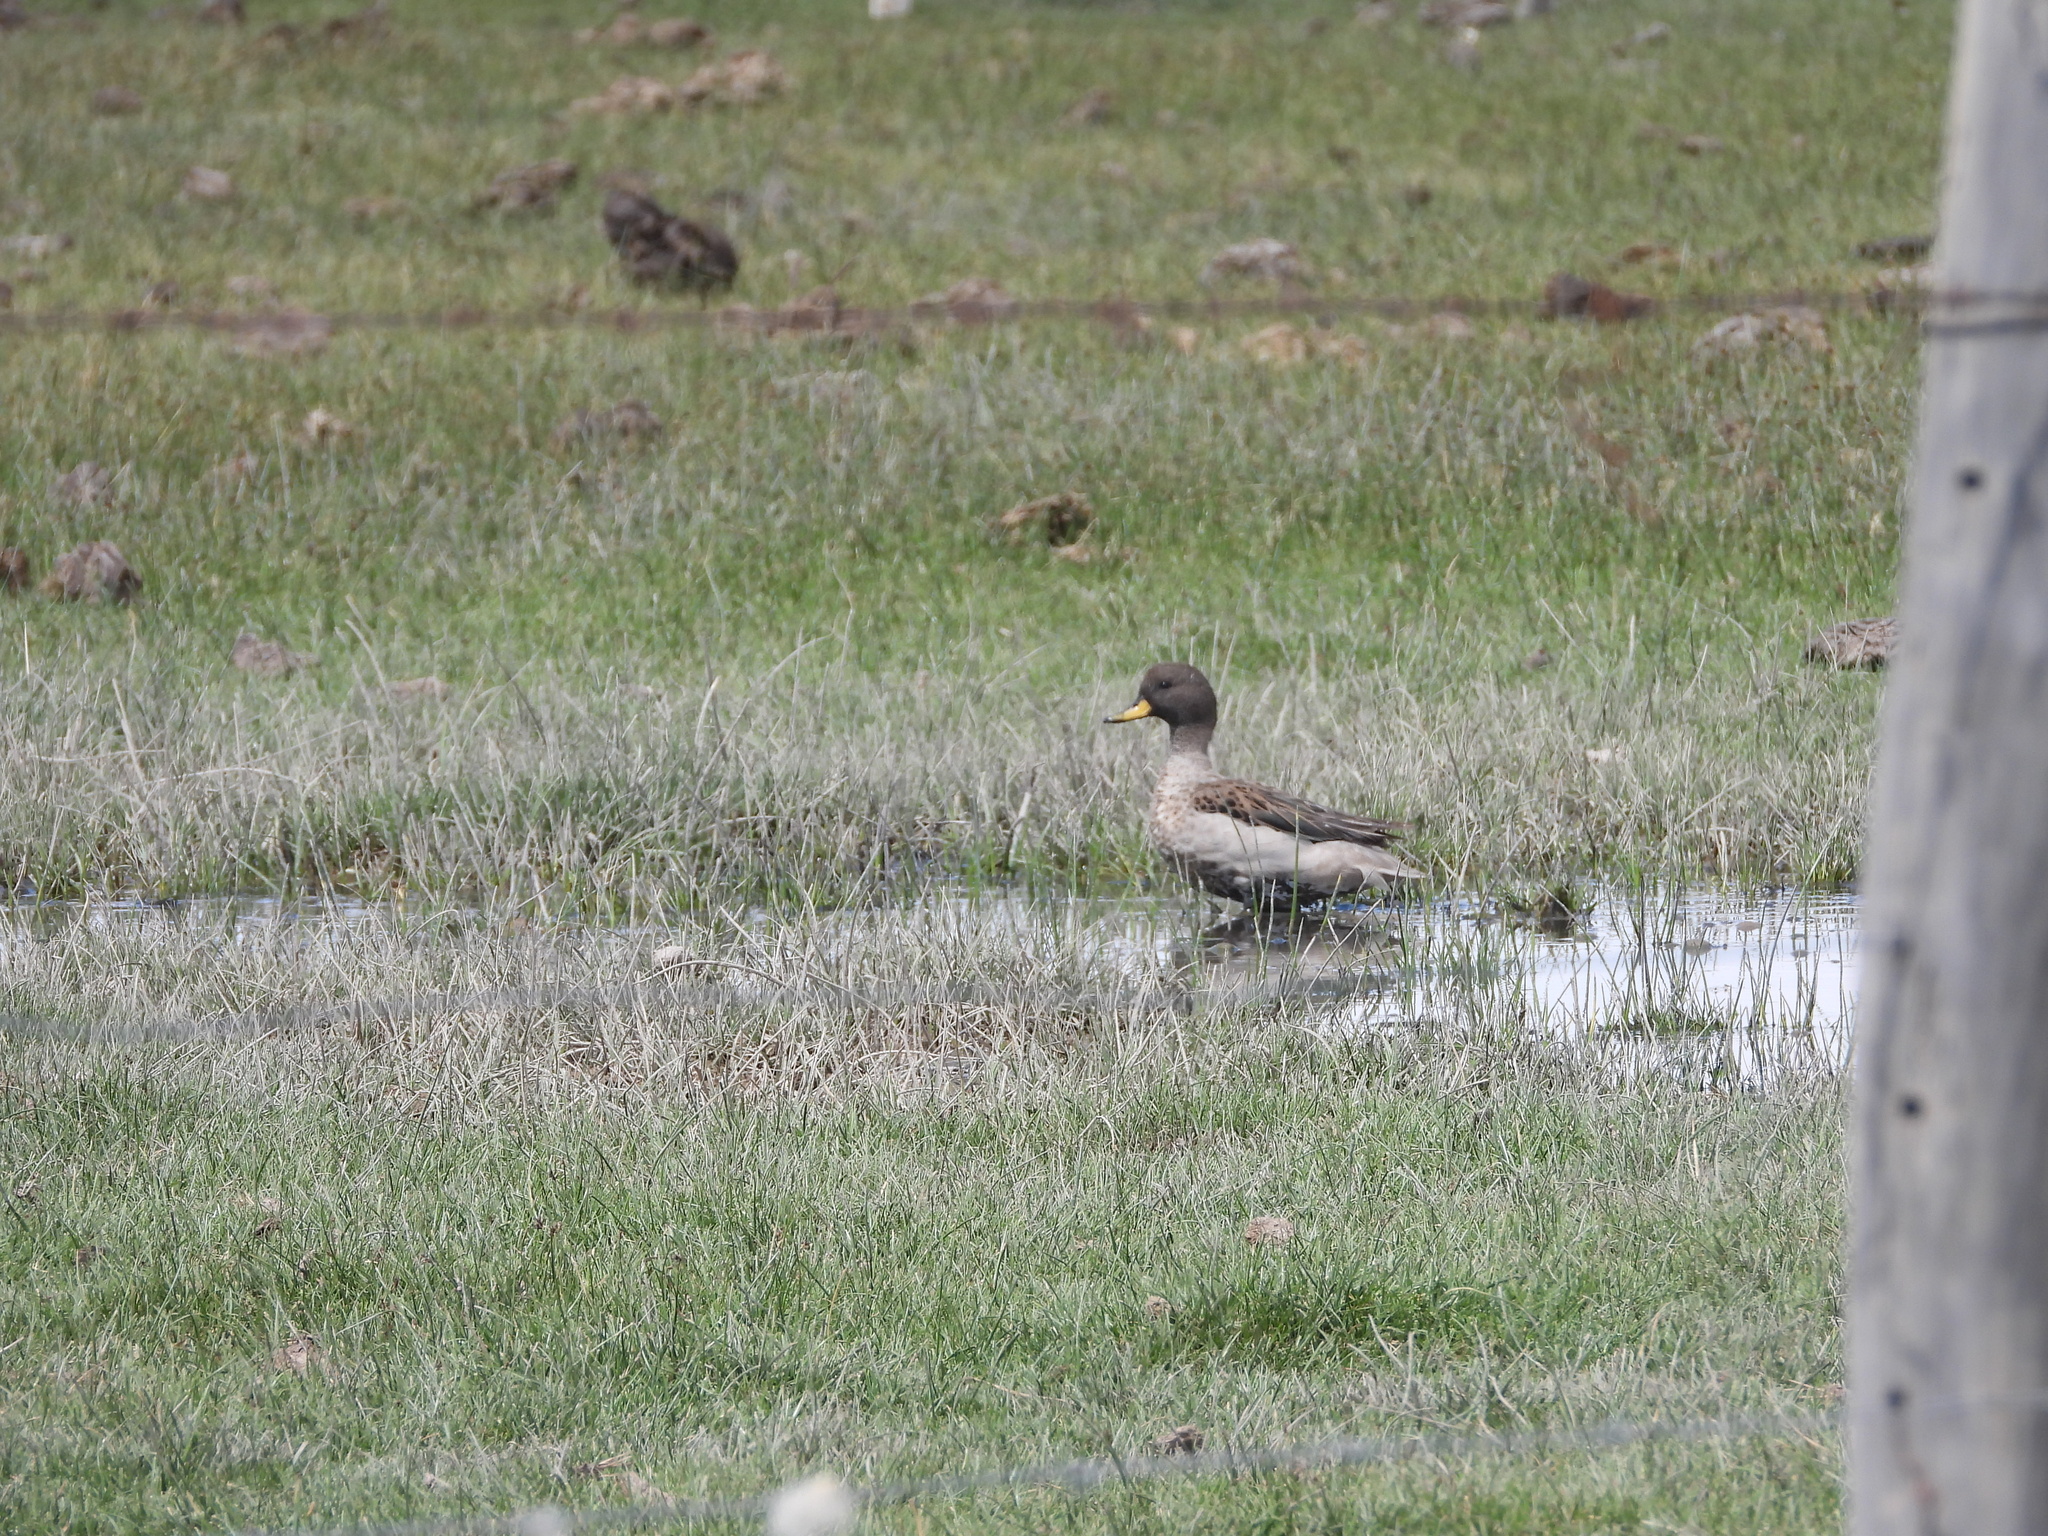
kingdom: Animalia
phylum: Chordata
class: Aves
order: Anseriformes
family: Anatidae
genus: Anas
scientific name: Anas flavirostris
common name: Yellow-billed teal
